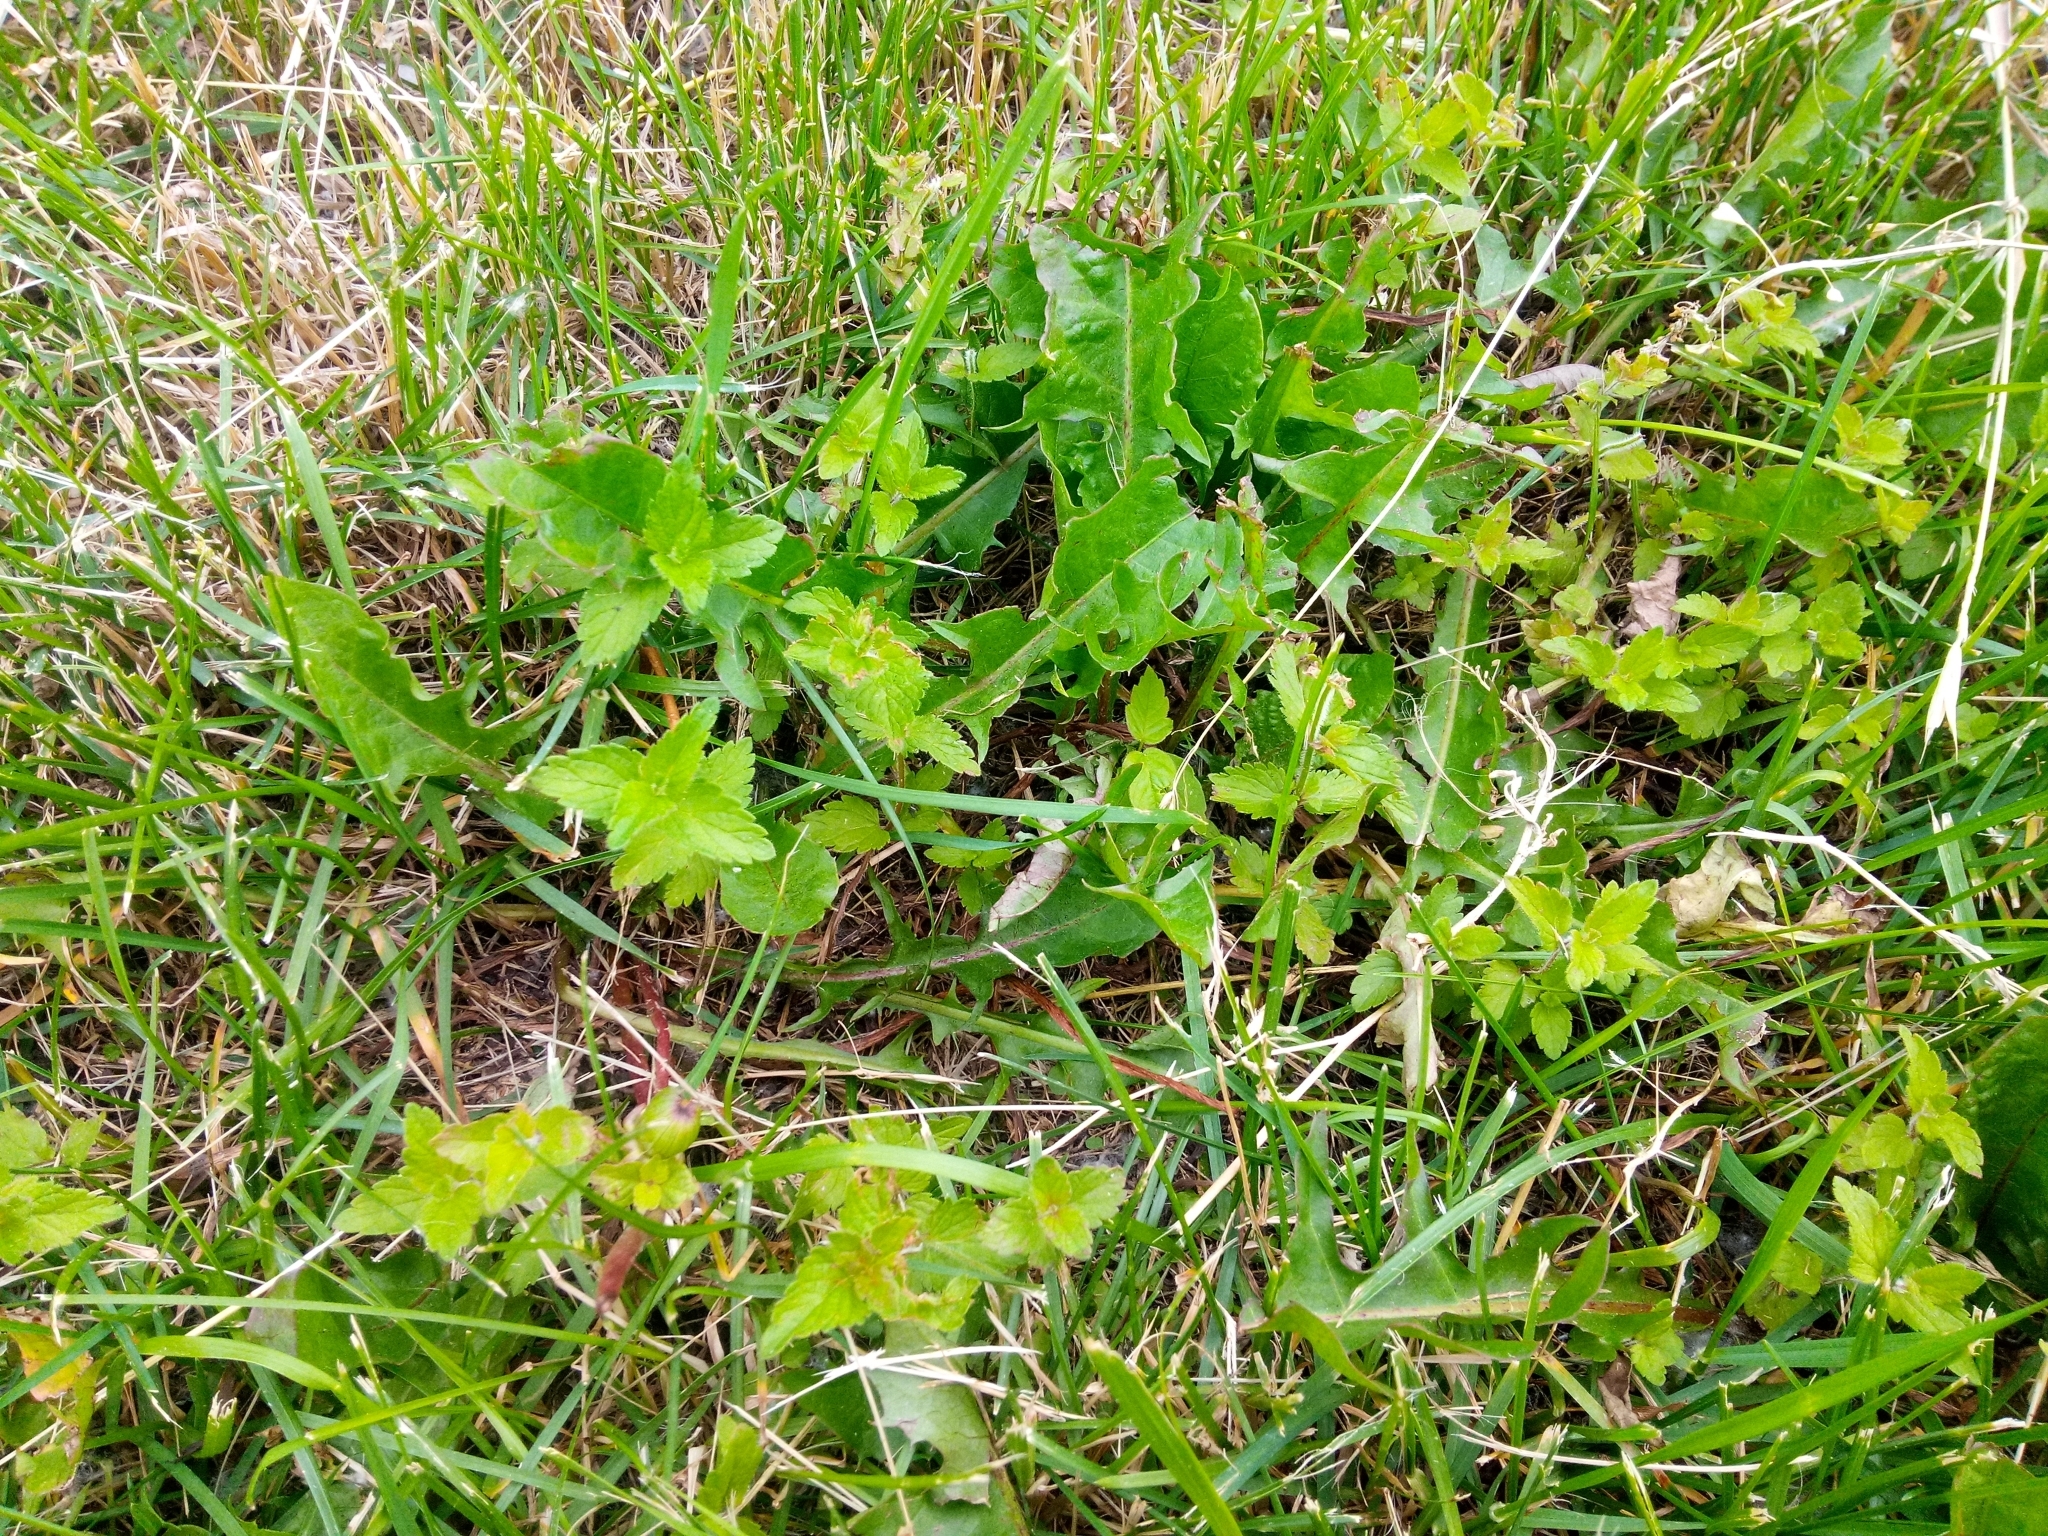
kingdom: Plantae
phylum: Tracheophyta
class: Magnoliopsida
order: Lamiales
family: Plantaginaceae
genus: Veronica
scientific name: Veronica chamaedrys
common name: Germander speedwell
